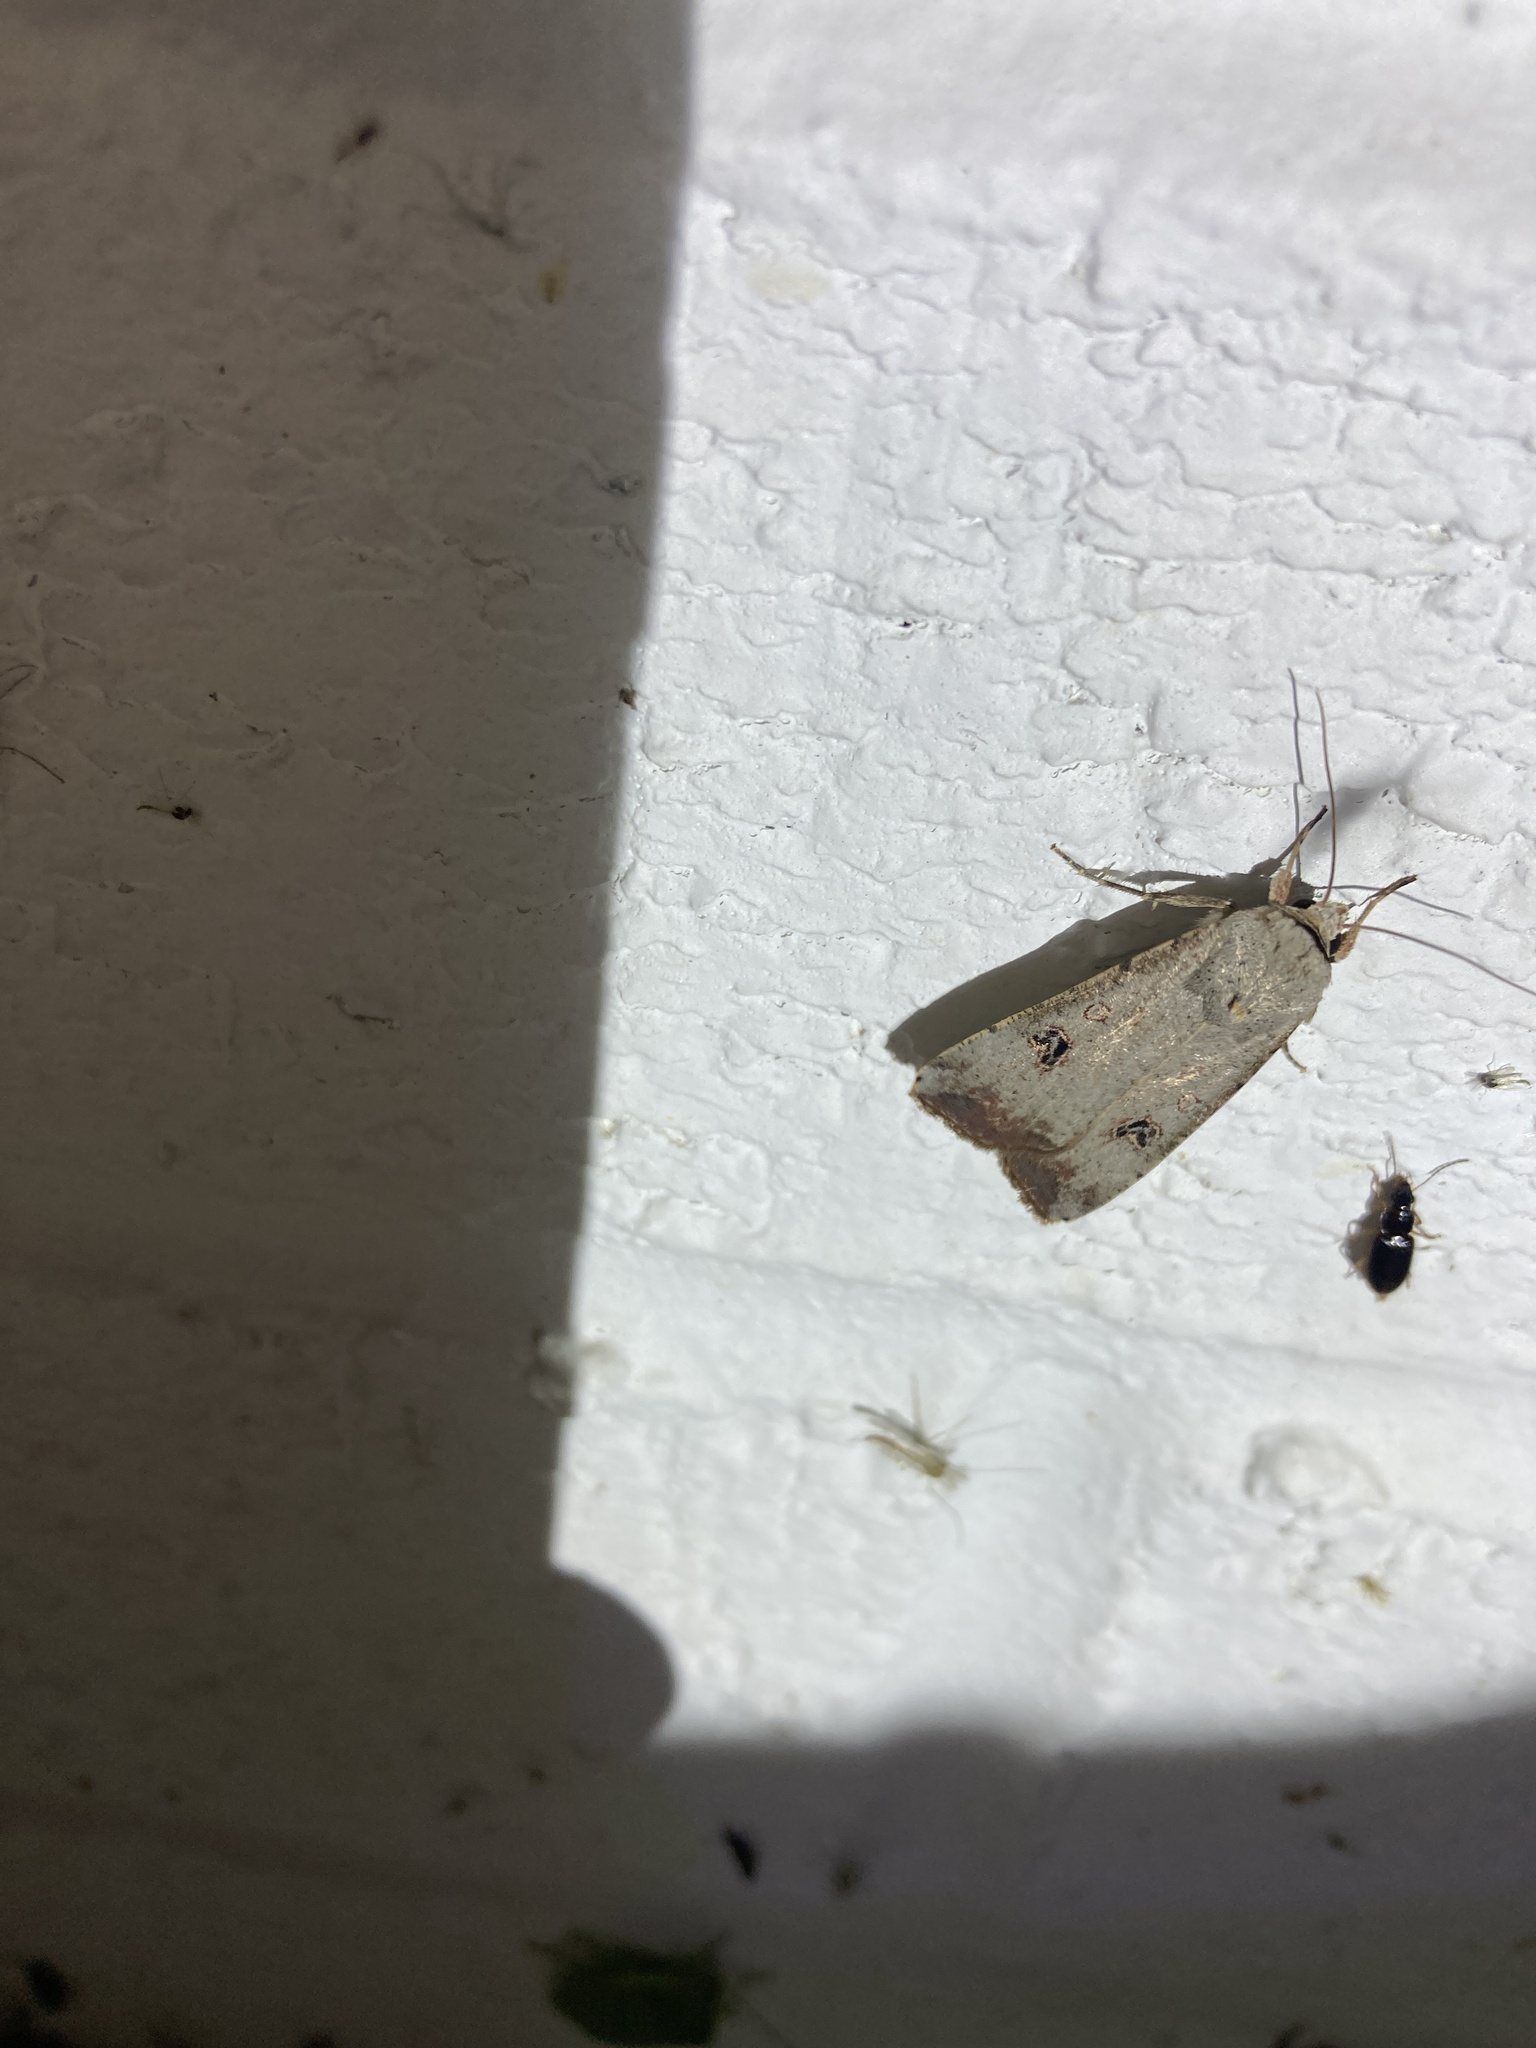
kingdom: Animalia
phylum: Arthropoda
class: Insecta
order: Lepidoptera
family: Noctuidae
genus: Anicla
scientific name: Anicla infecta
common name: Green cutworm
